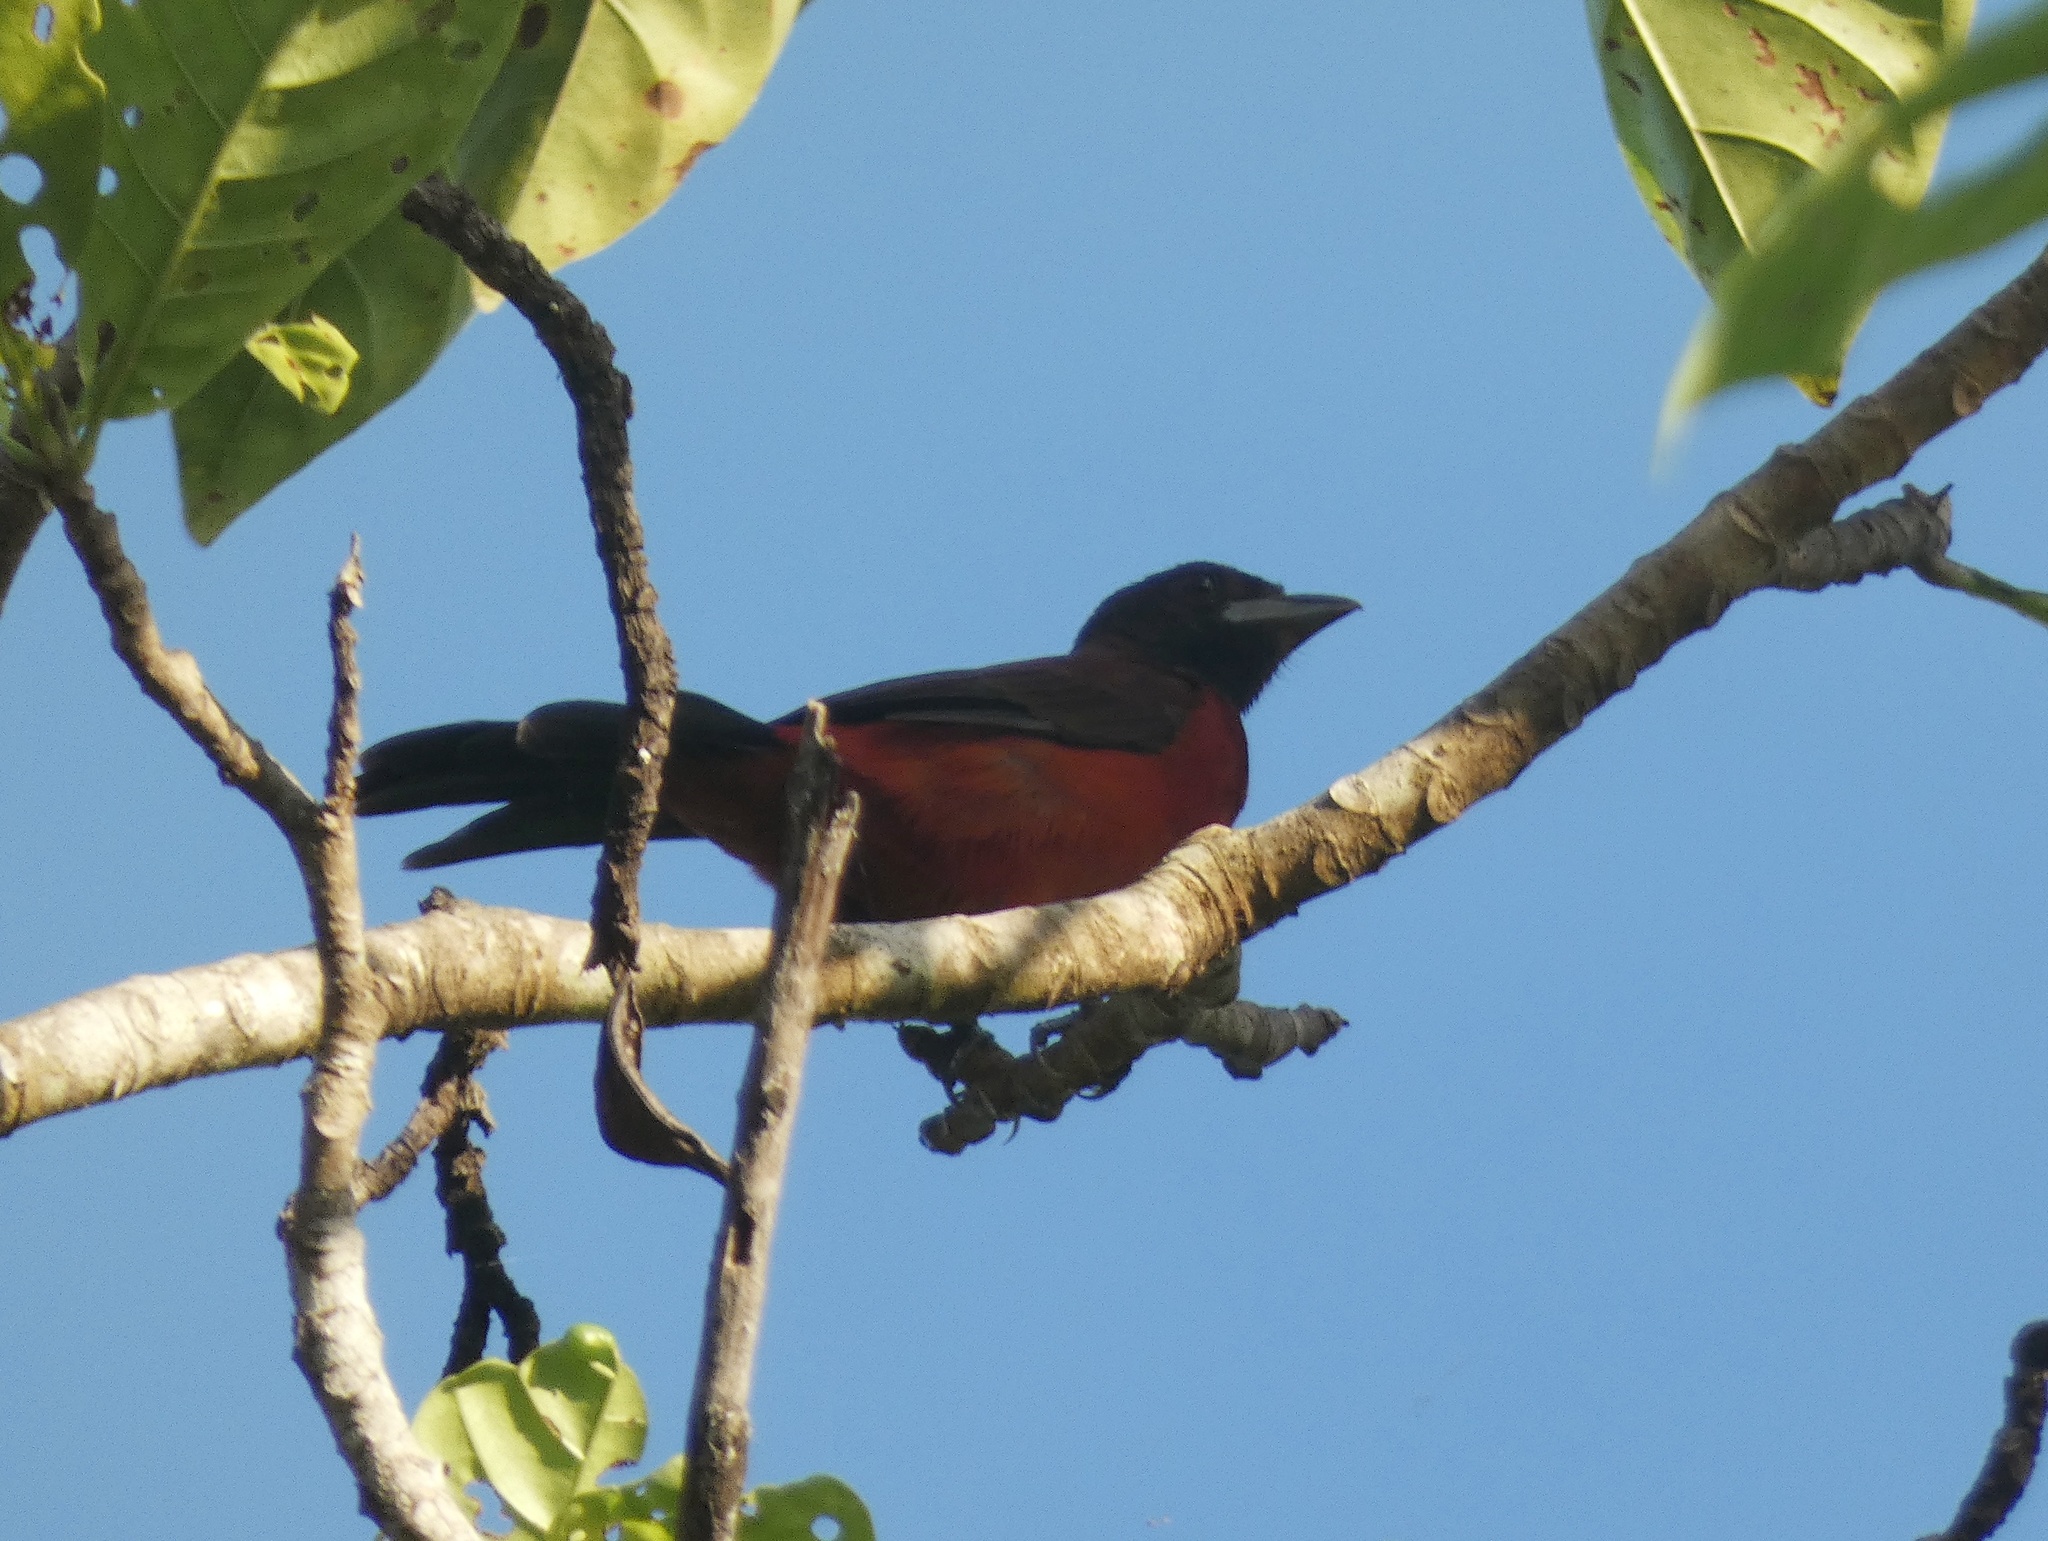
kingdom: Animalia
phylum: Chordata
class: Aves
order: Passeriformes
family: Thraupidae
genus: Ramphocelus
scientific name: Ramphocelus dimidiatus
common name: Crimson-backed tanager
